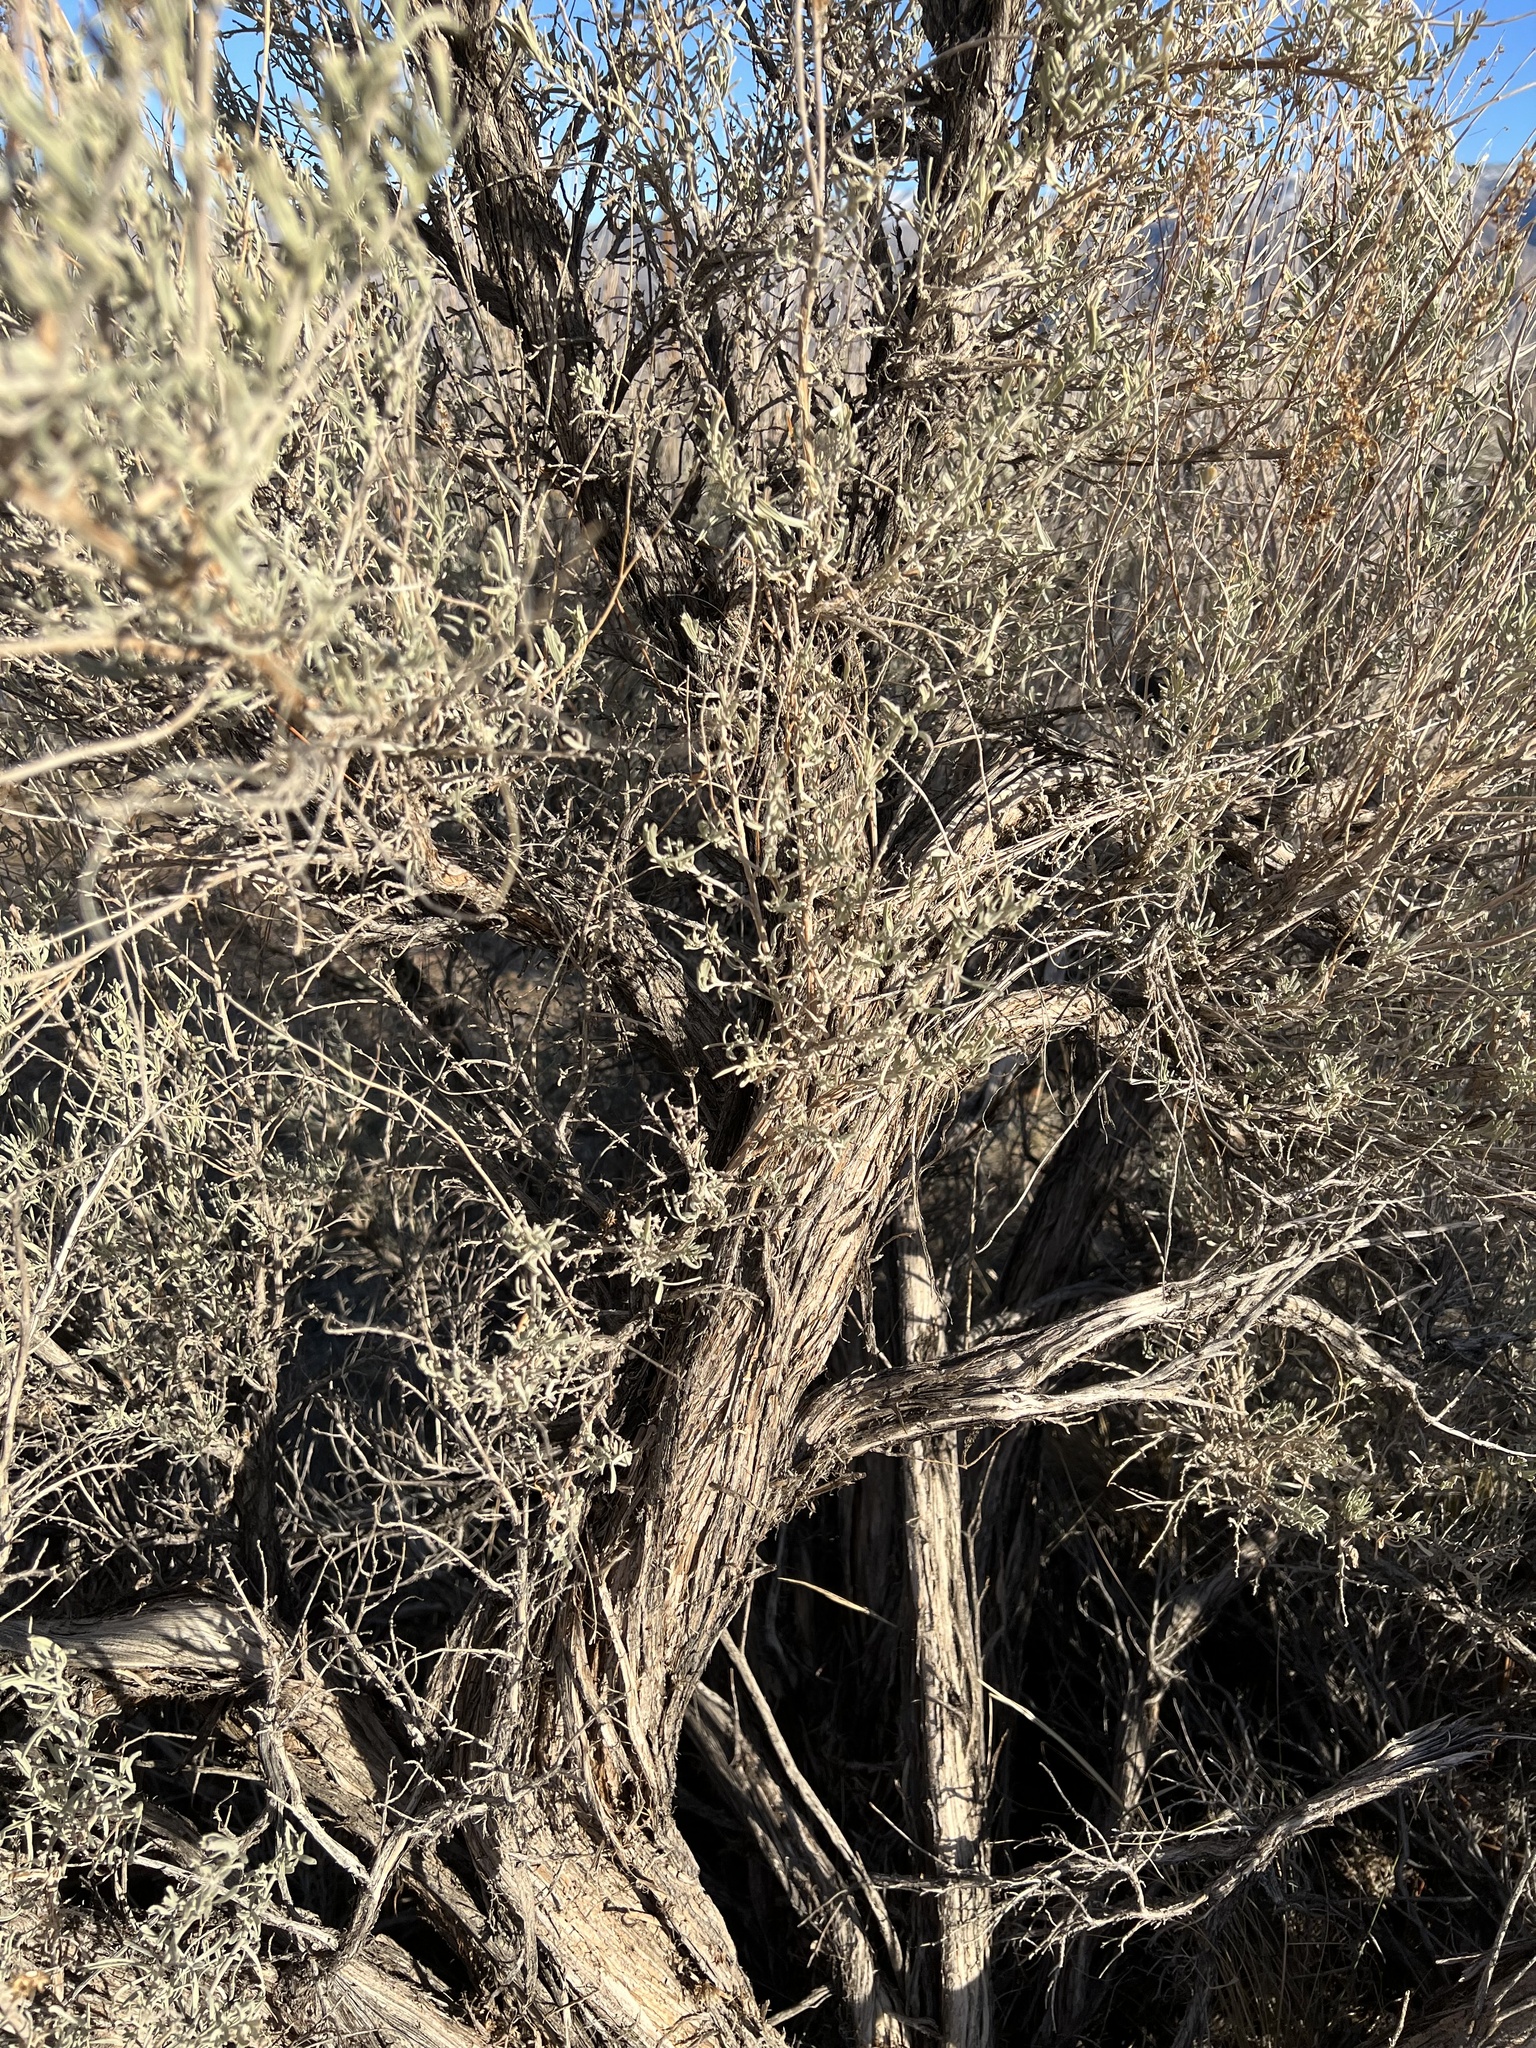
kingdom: Plantae
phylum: Tracheophyta
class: Magnoliopsida
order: Asterales
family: Asteraceae
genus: Artemisia
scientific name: Artemisia tridentata
